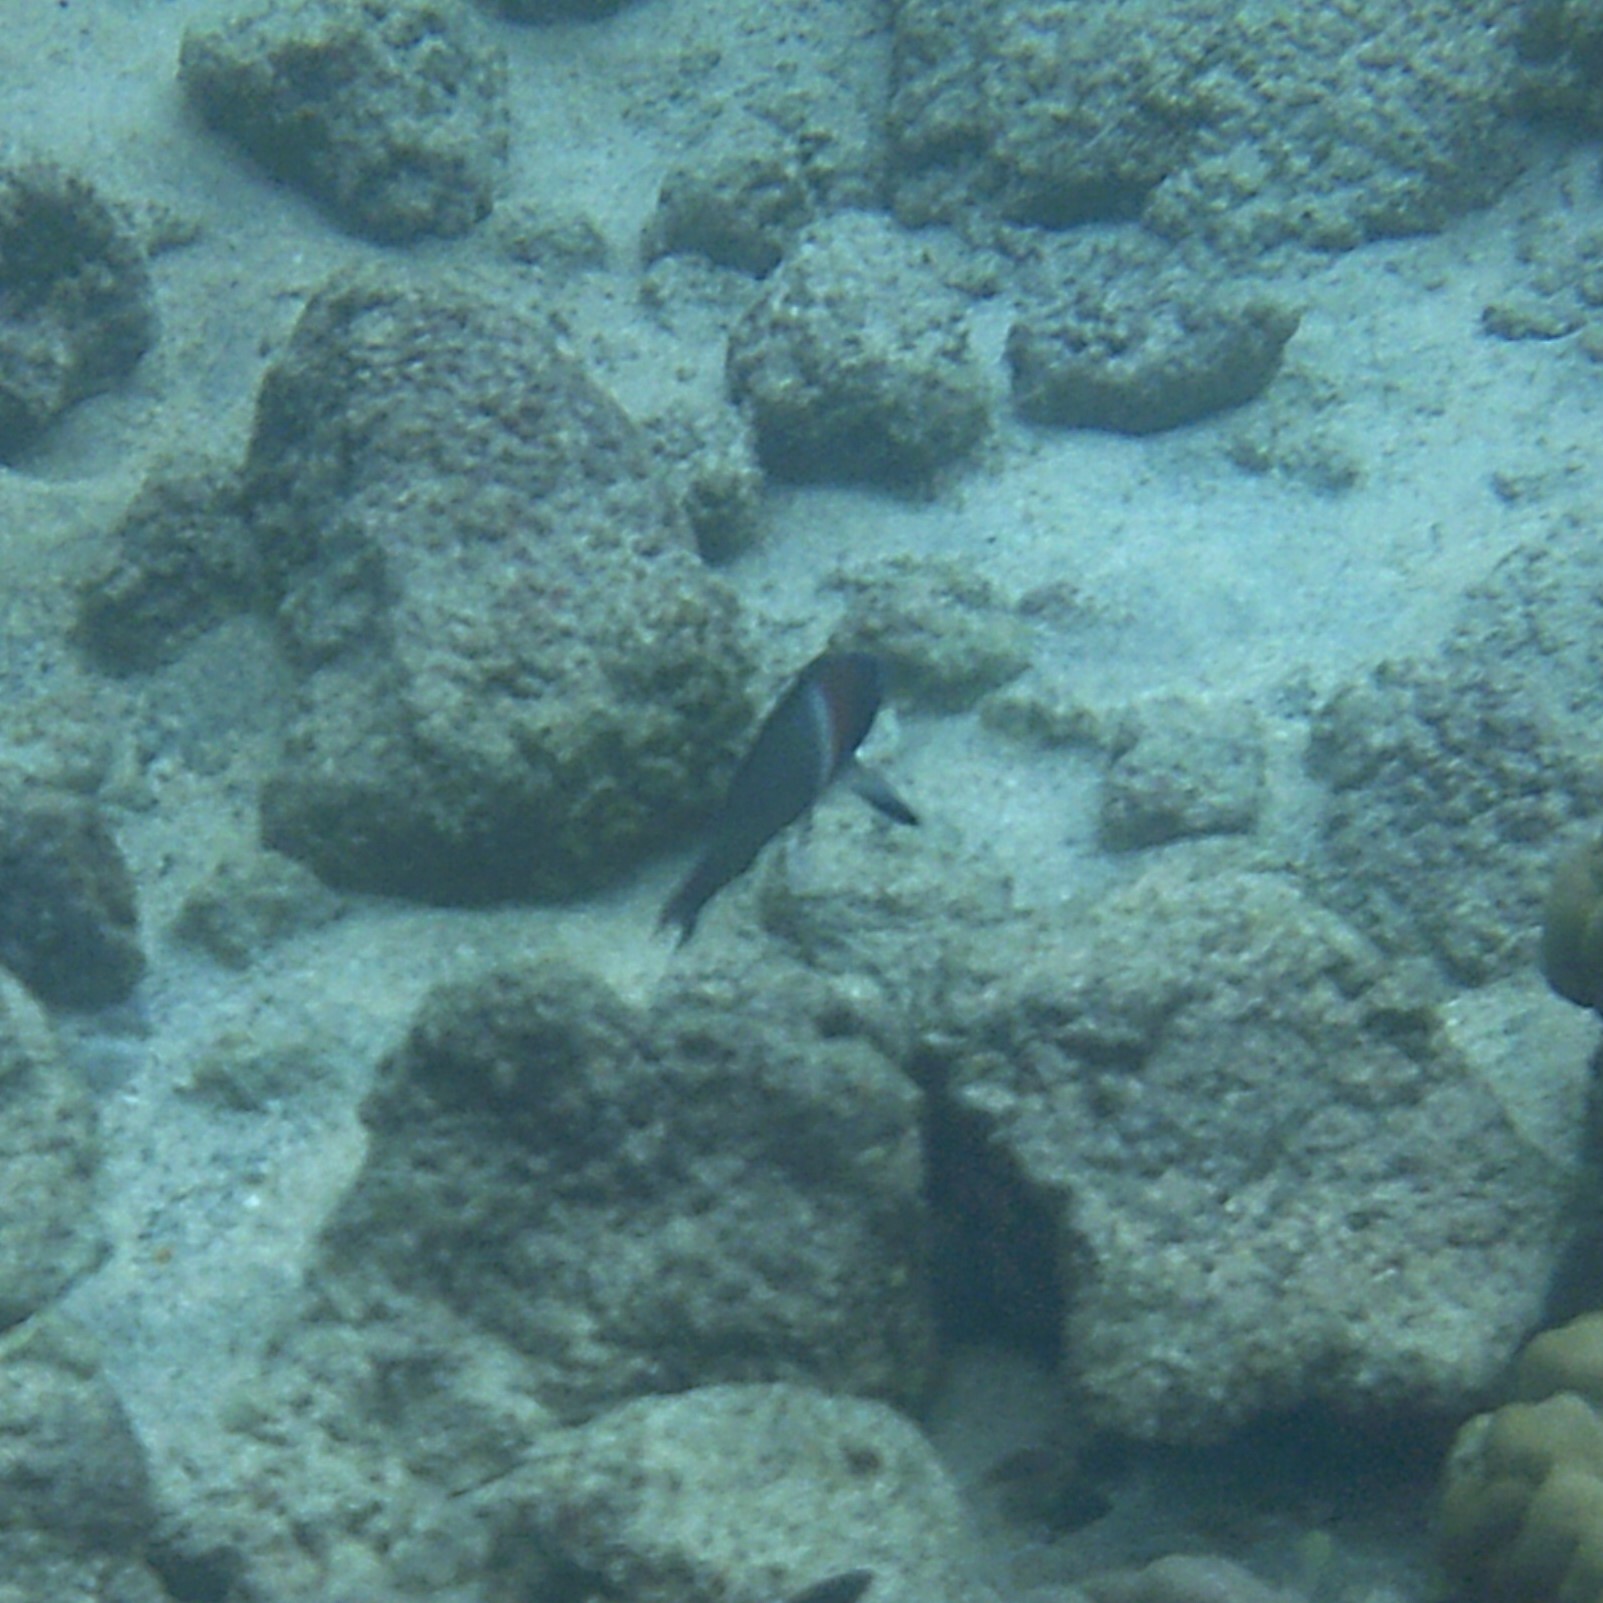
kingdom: Animalia
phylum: Chordata
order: Perciformes
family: Labridae
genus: Thalassoma
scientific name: Thalassoma duperrey
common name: Saddle wrasse
